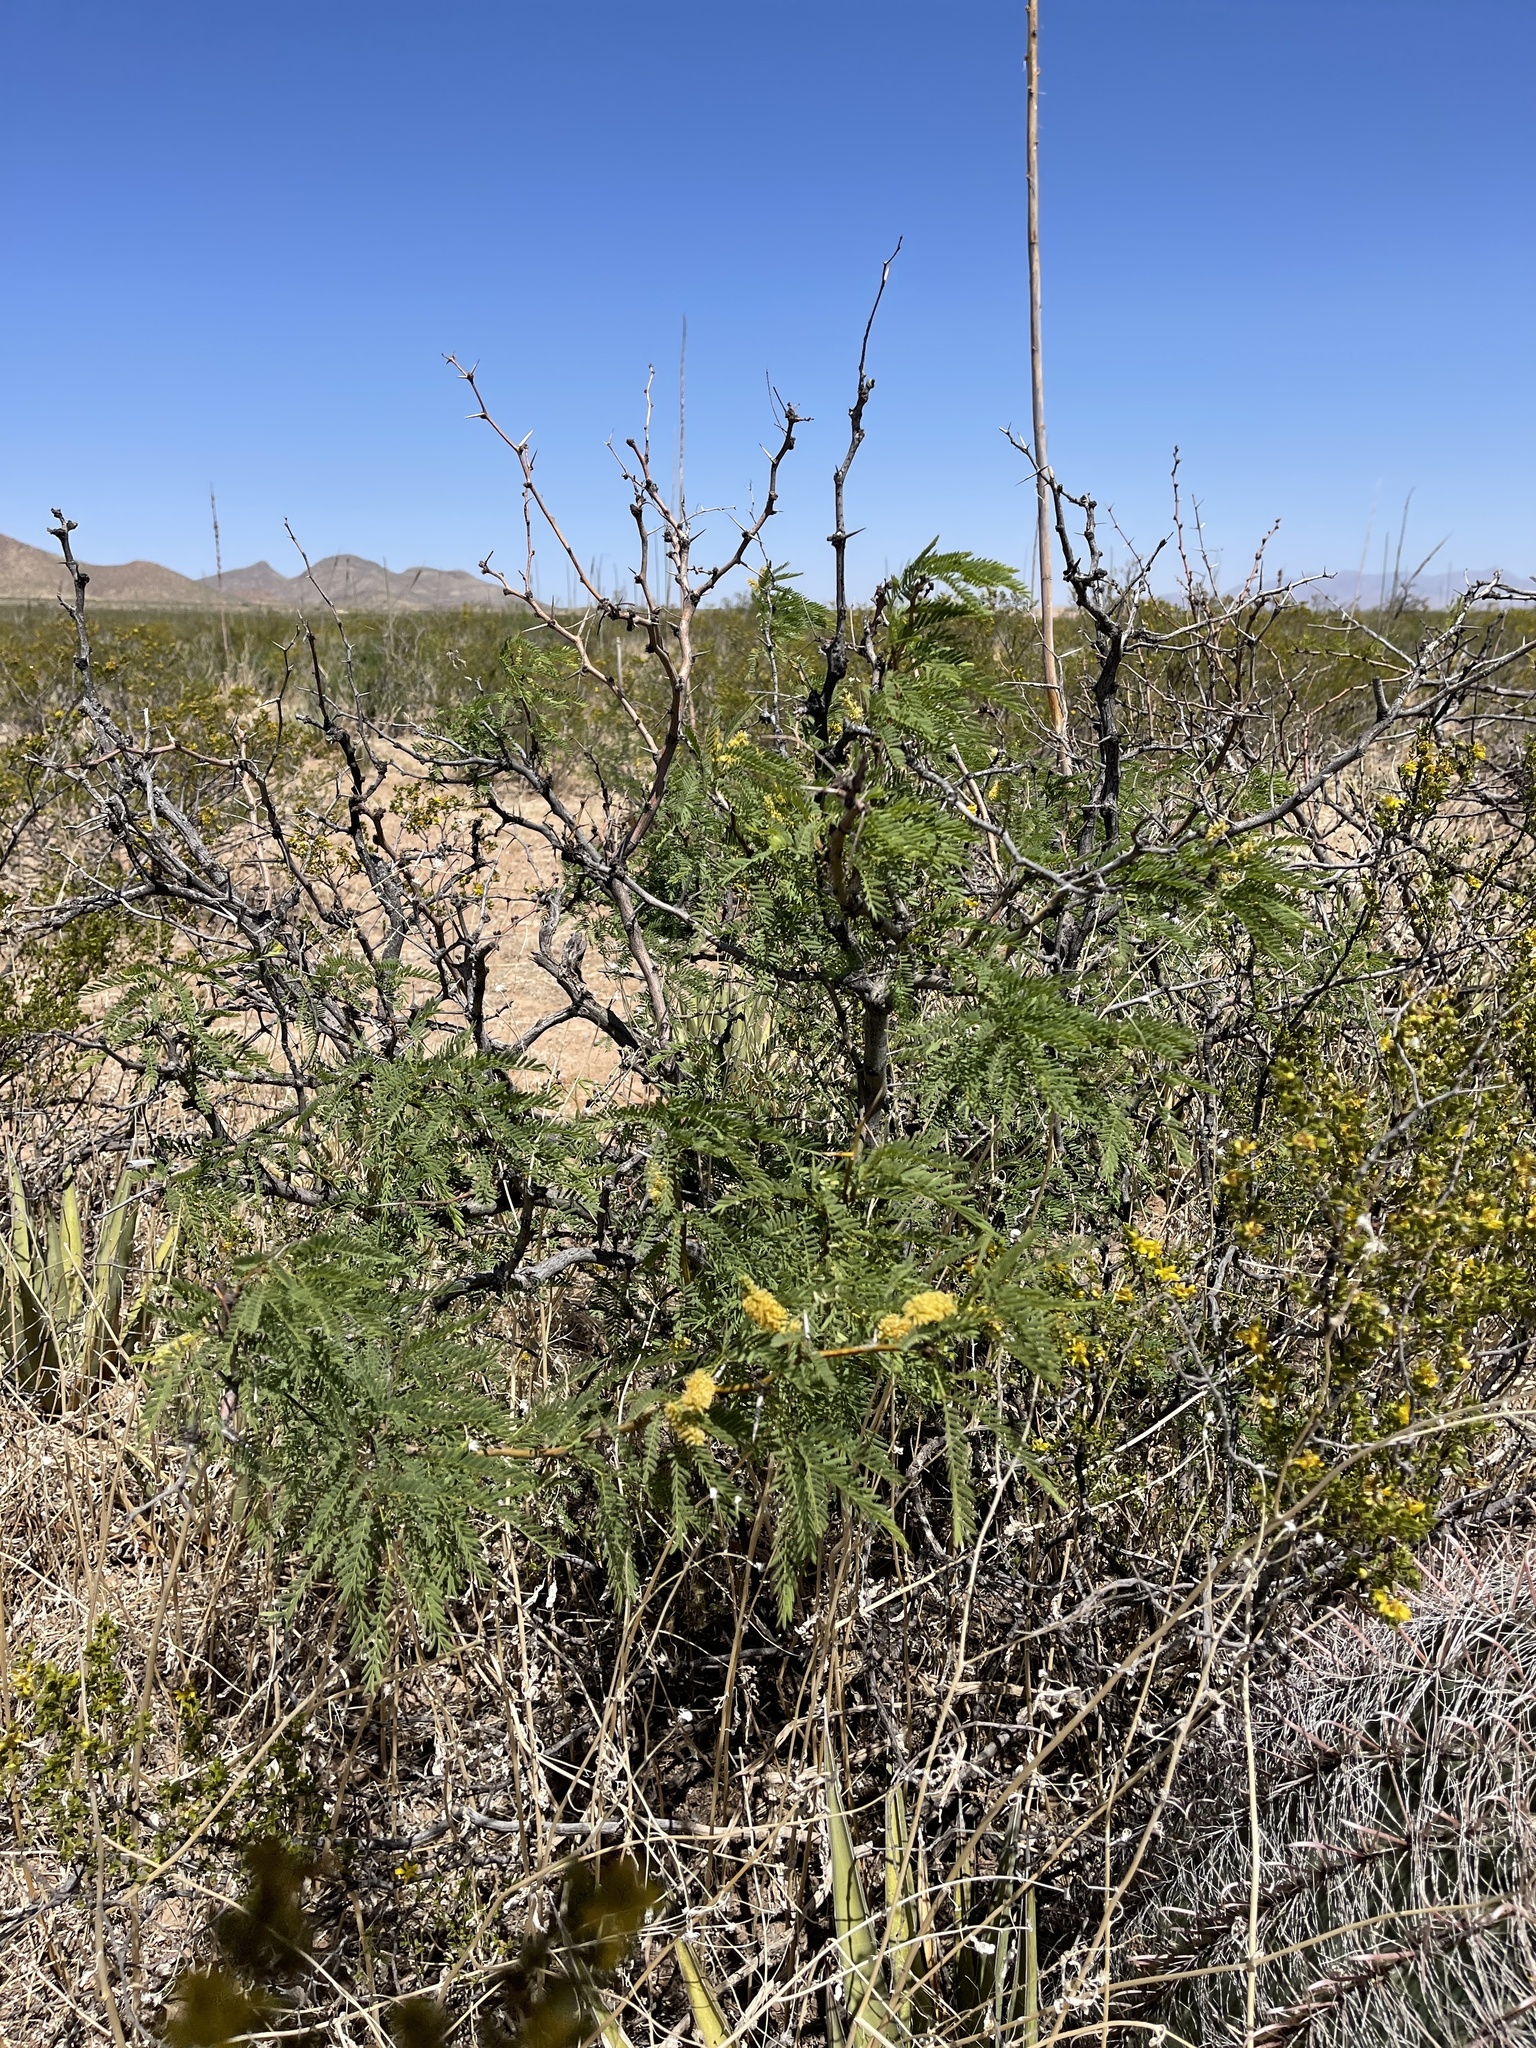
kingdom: Plantae
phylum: Tracheophyta
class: Magnoliopsida
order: Fabales
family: Fabaceae
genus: Prosopis
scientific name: Prosopis glandulosa
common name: Honey mesquite
